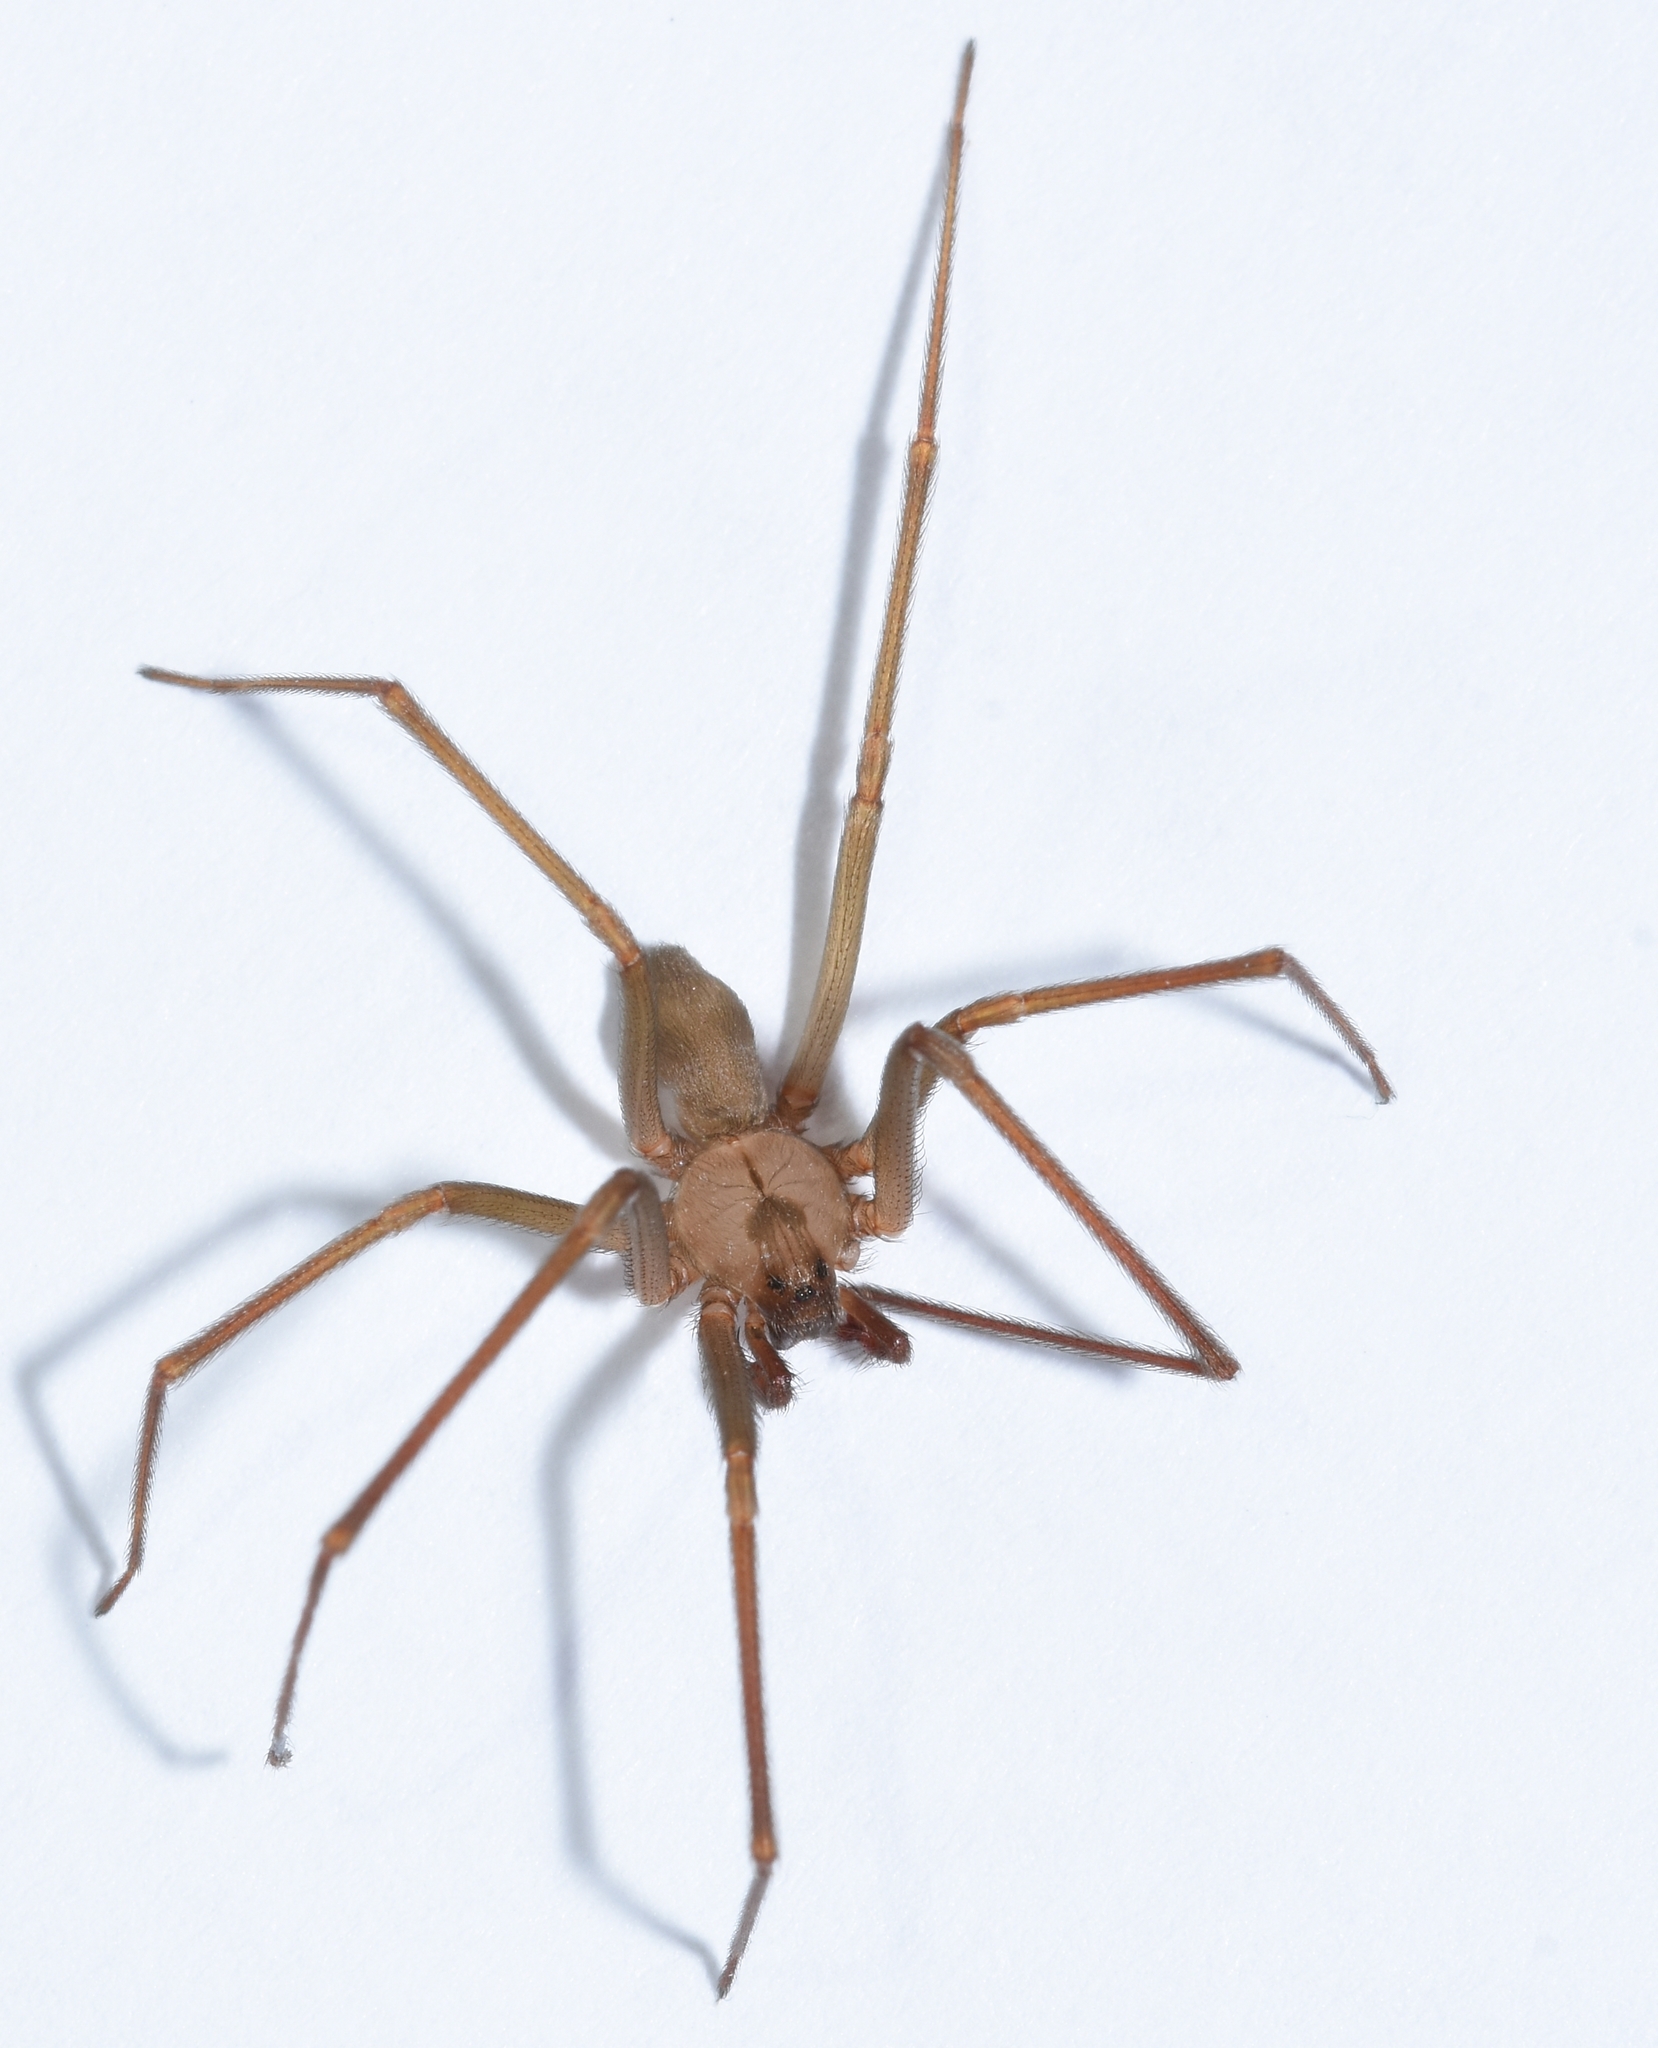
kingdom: Animalia
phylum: Arthropoda
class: Arachnida
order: Araneae
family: Sicariidae
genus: Loxosceles
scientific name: Loxosceles reclusa
